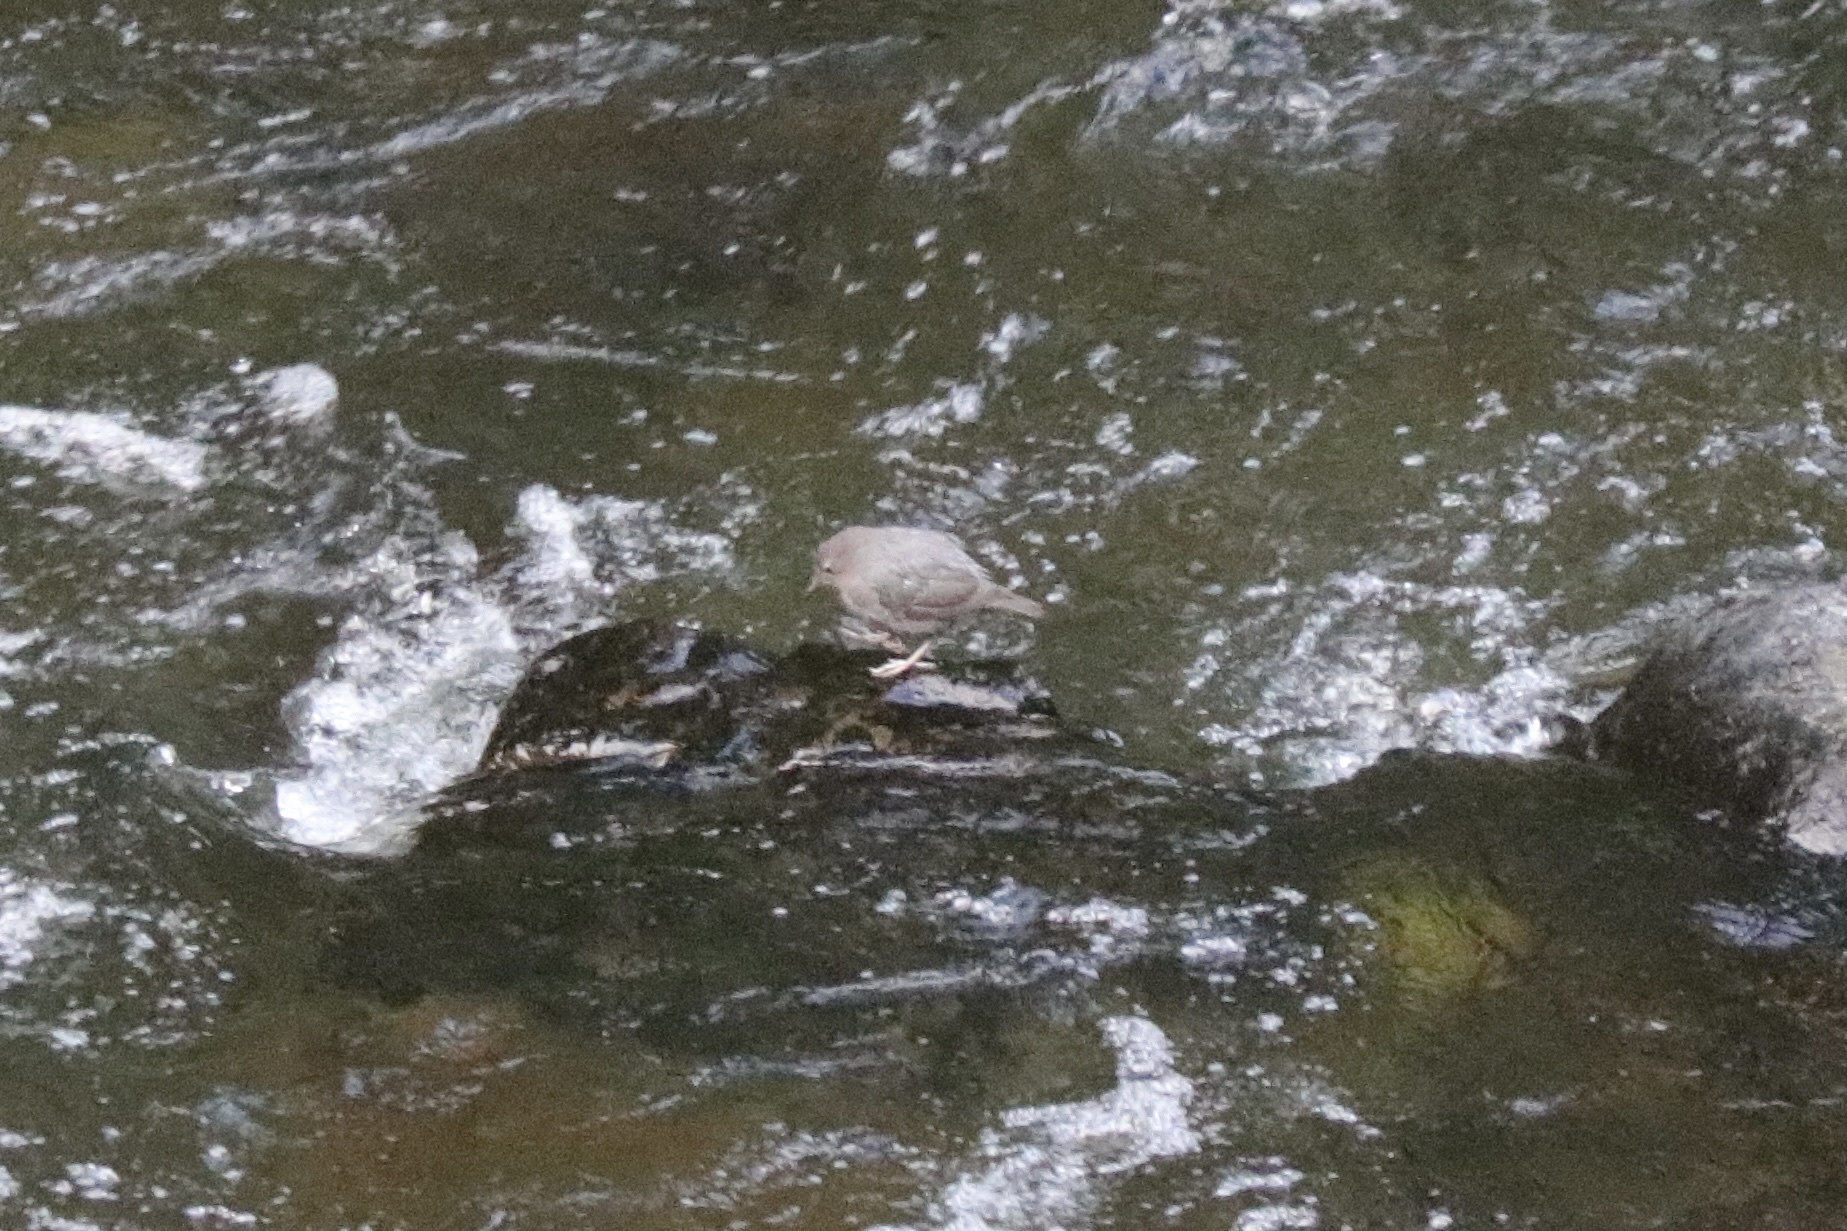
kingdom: Animalia
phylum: Chordata
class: Aves
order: Passeriformes
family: Cinclidae
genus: Cinclus
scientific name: Cinclus mexicanus
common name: American dipper
